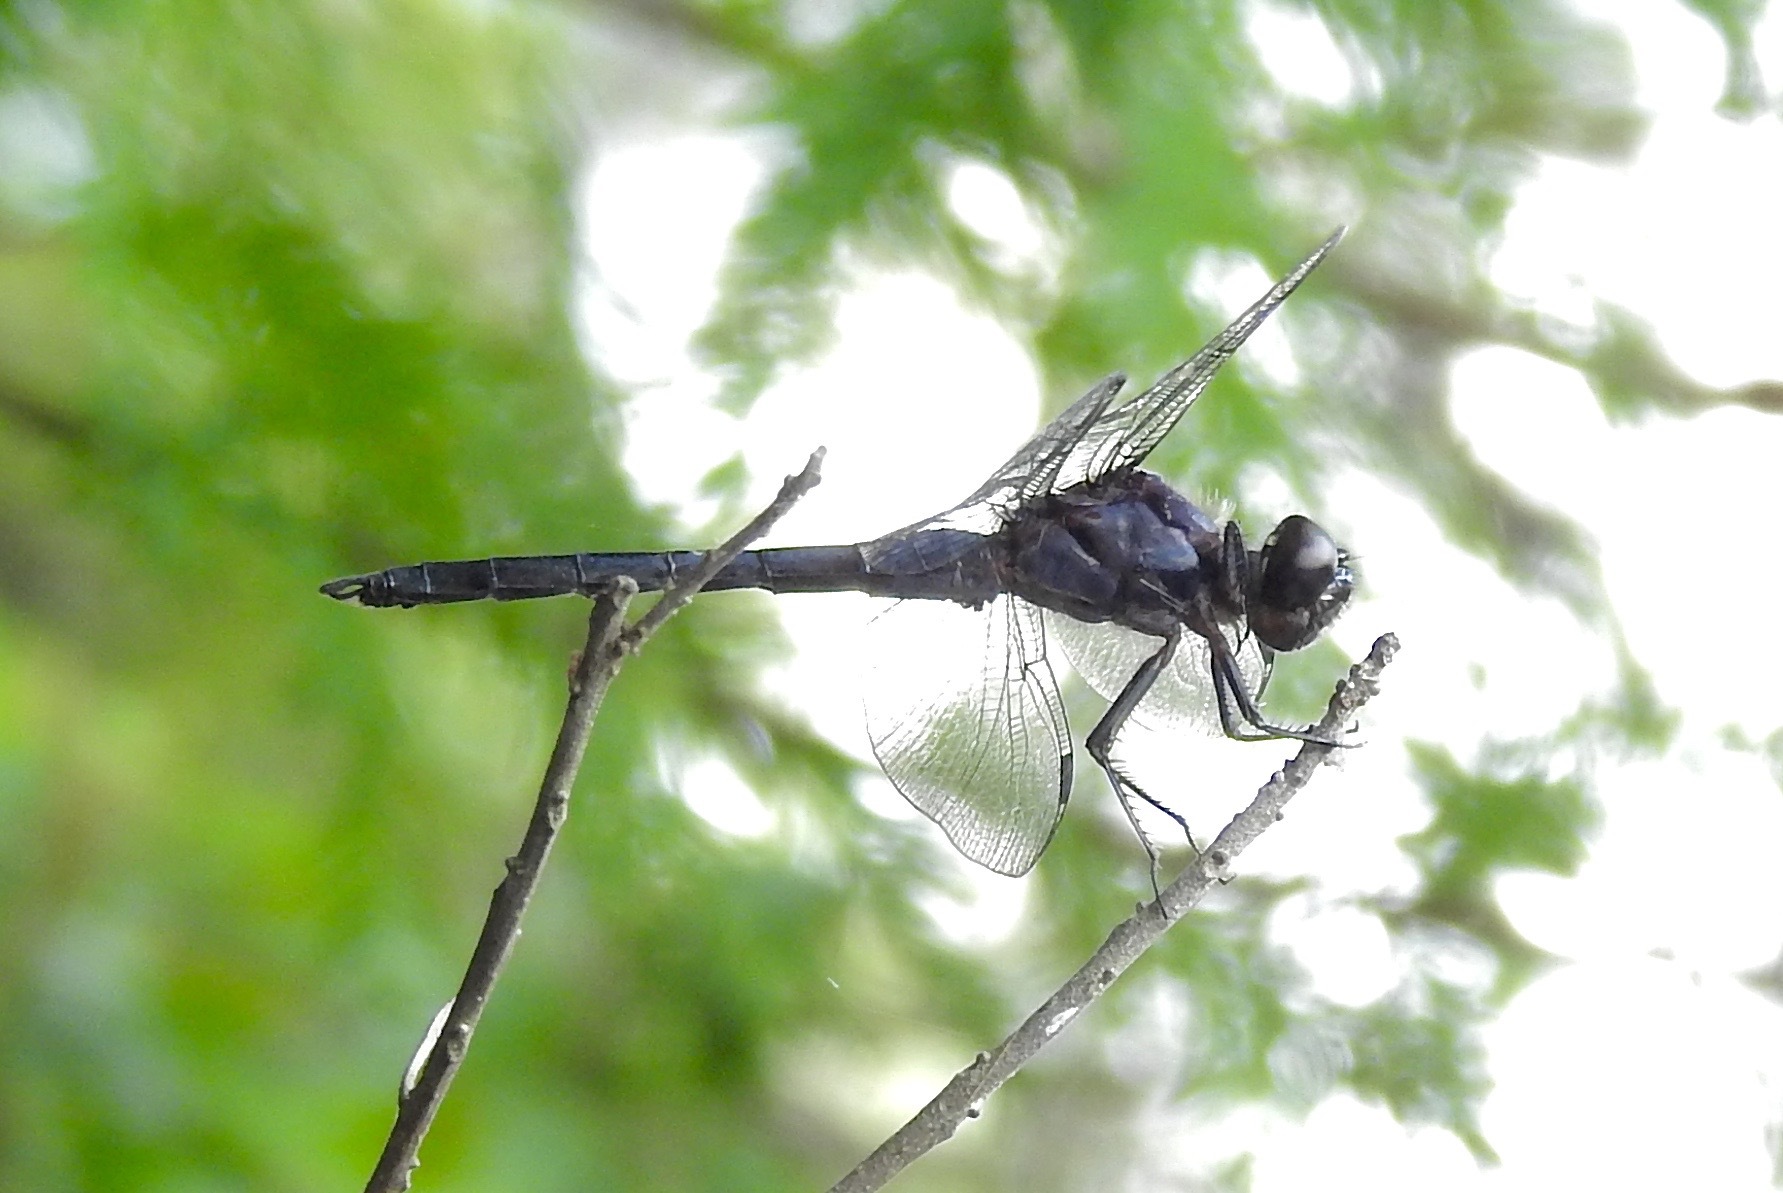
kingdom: Animalia
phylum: Arthropoda
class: Insecta
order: Odonata
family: Libellulidae
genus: Libellula
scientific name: Libellula incesta
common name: Slaty skimmer
